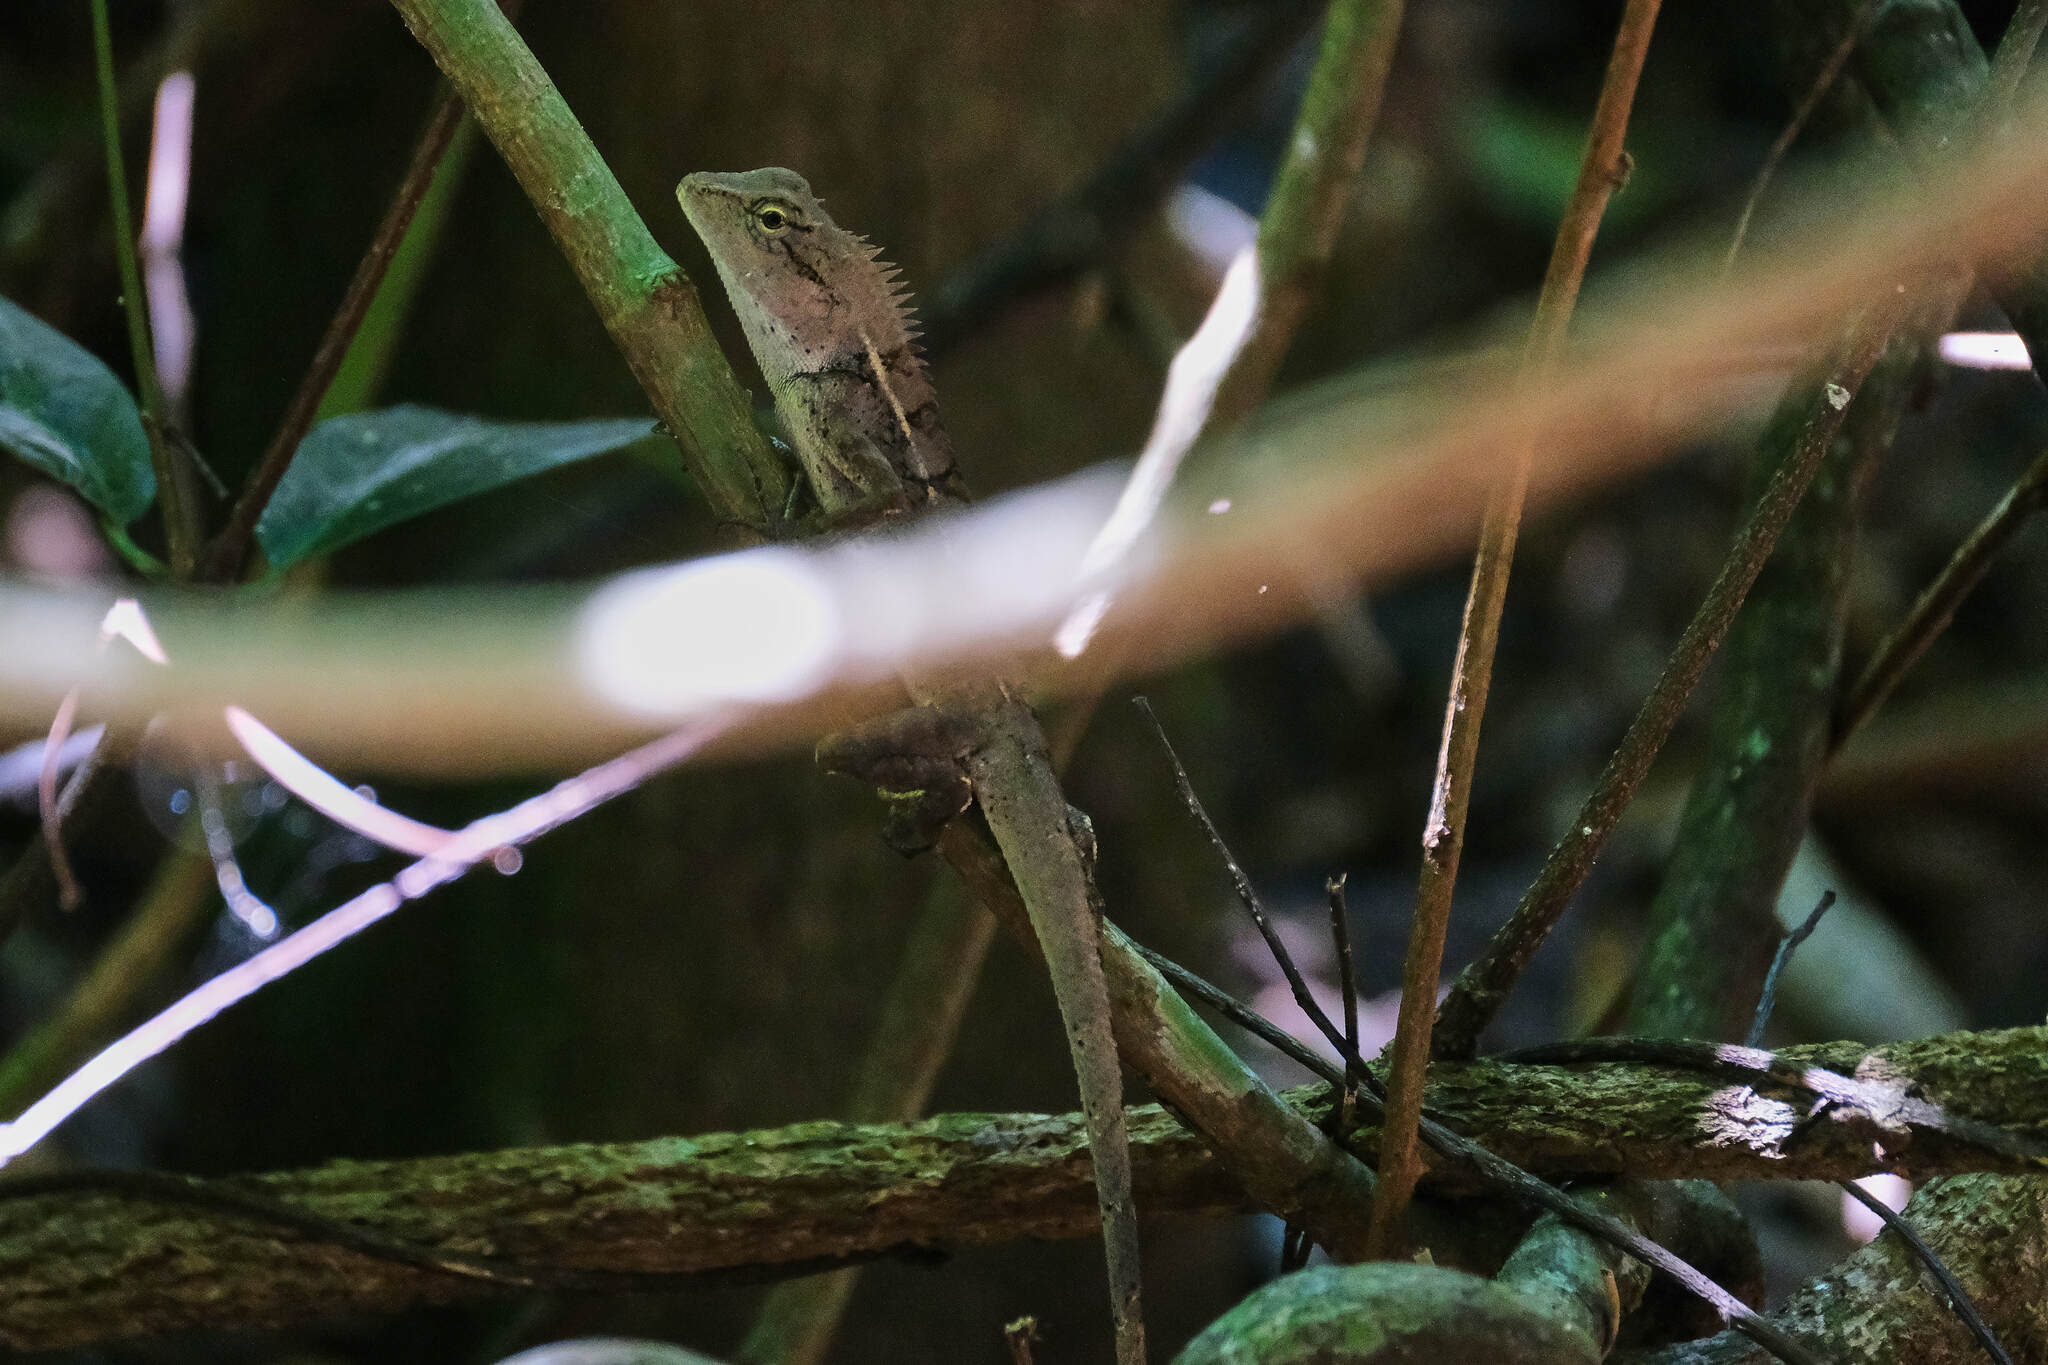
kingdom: Animalia
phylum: Chordata
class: Squamata
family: Agamidae
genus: Calotes
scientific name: Calotes emma
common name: Thailand bloodsucker
